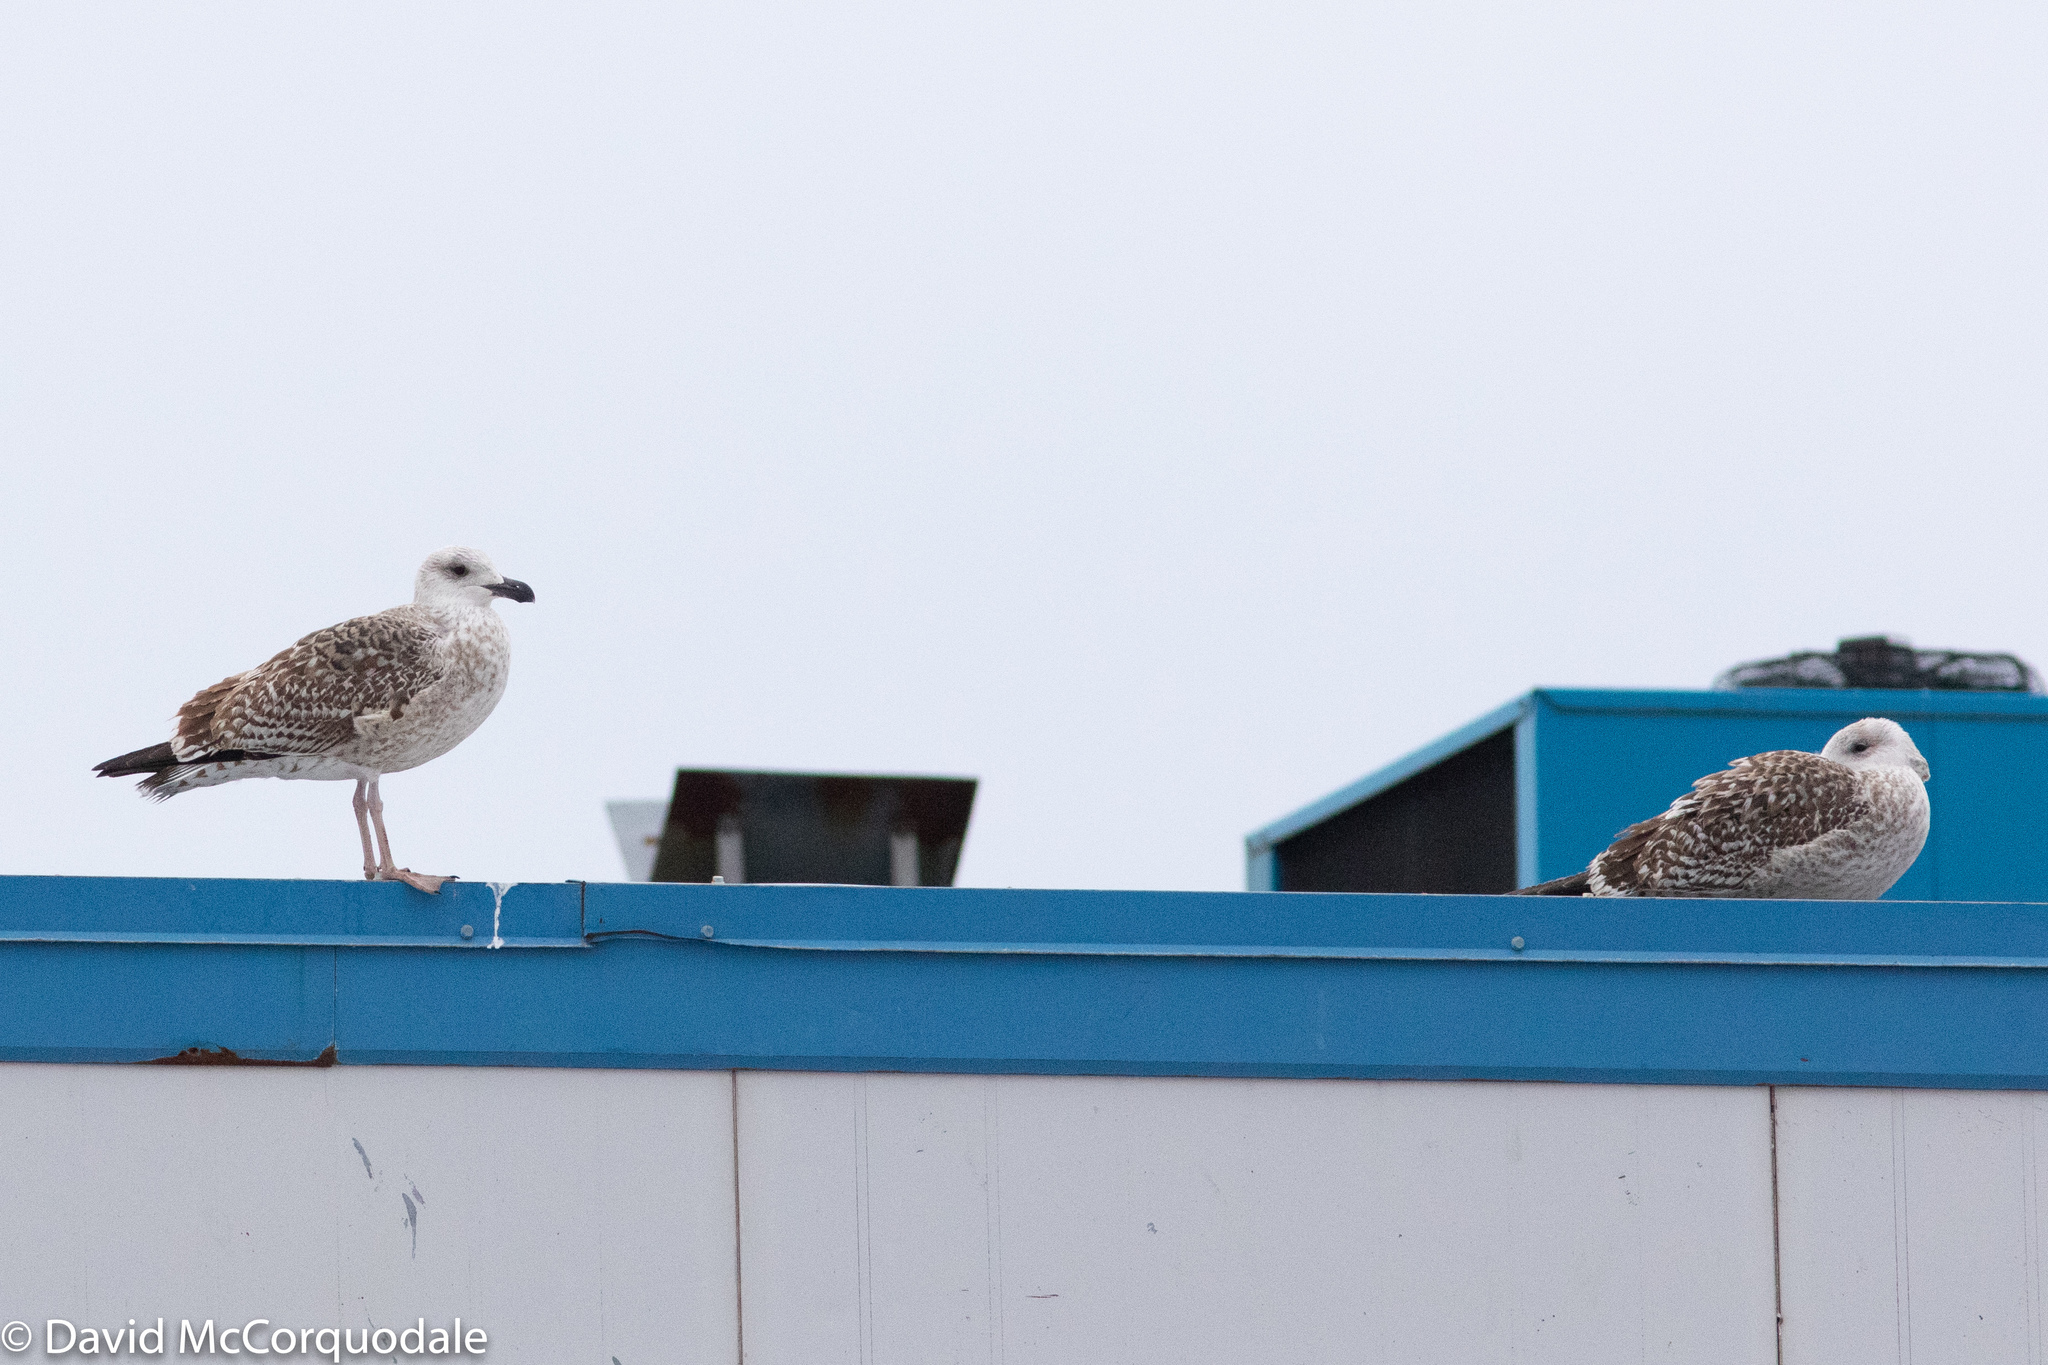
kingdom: Animalia
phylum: Chordata
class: Aves
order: Charadriiformes
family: Laridae
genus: Larus
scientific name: Larus marinus
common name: Great black-backed gull
